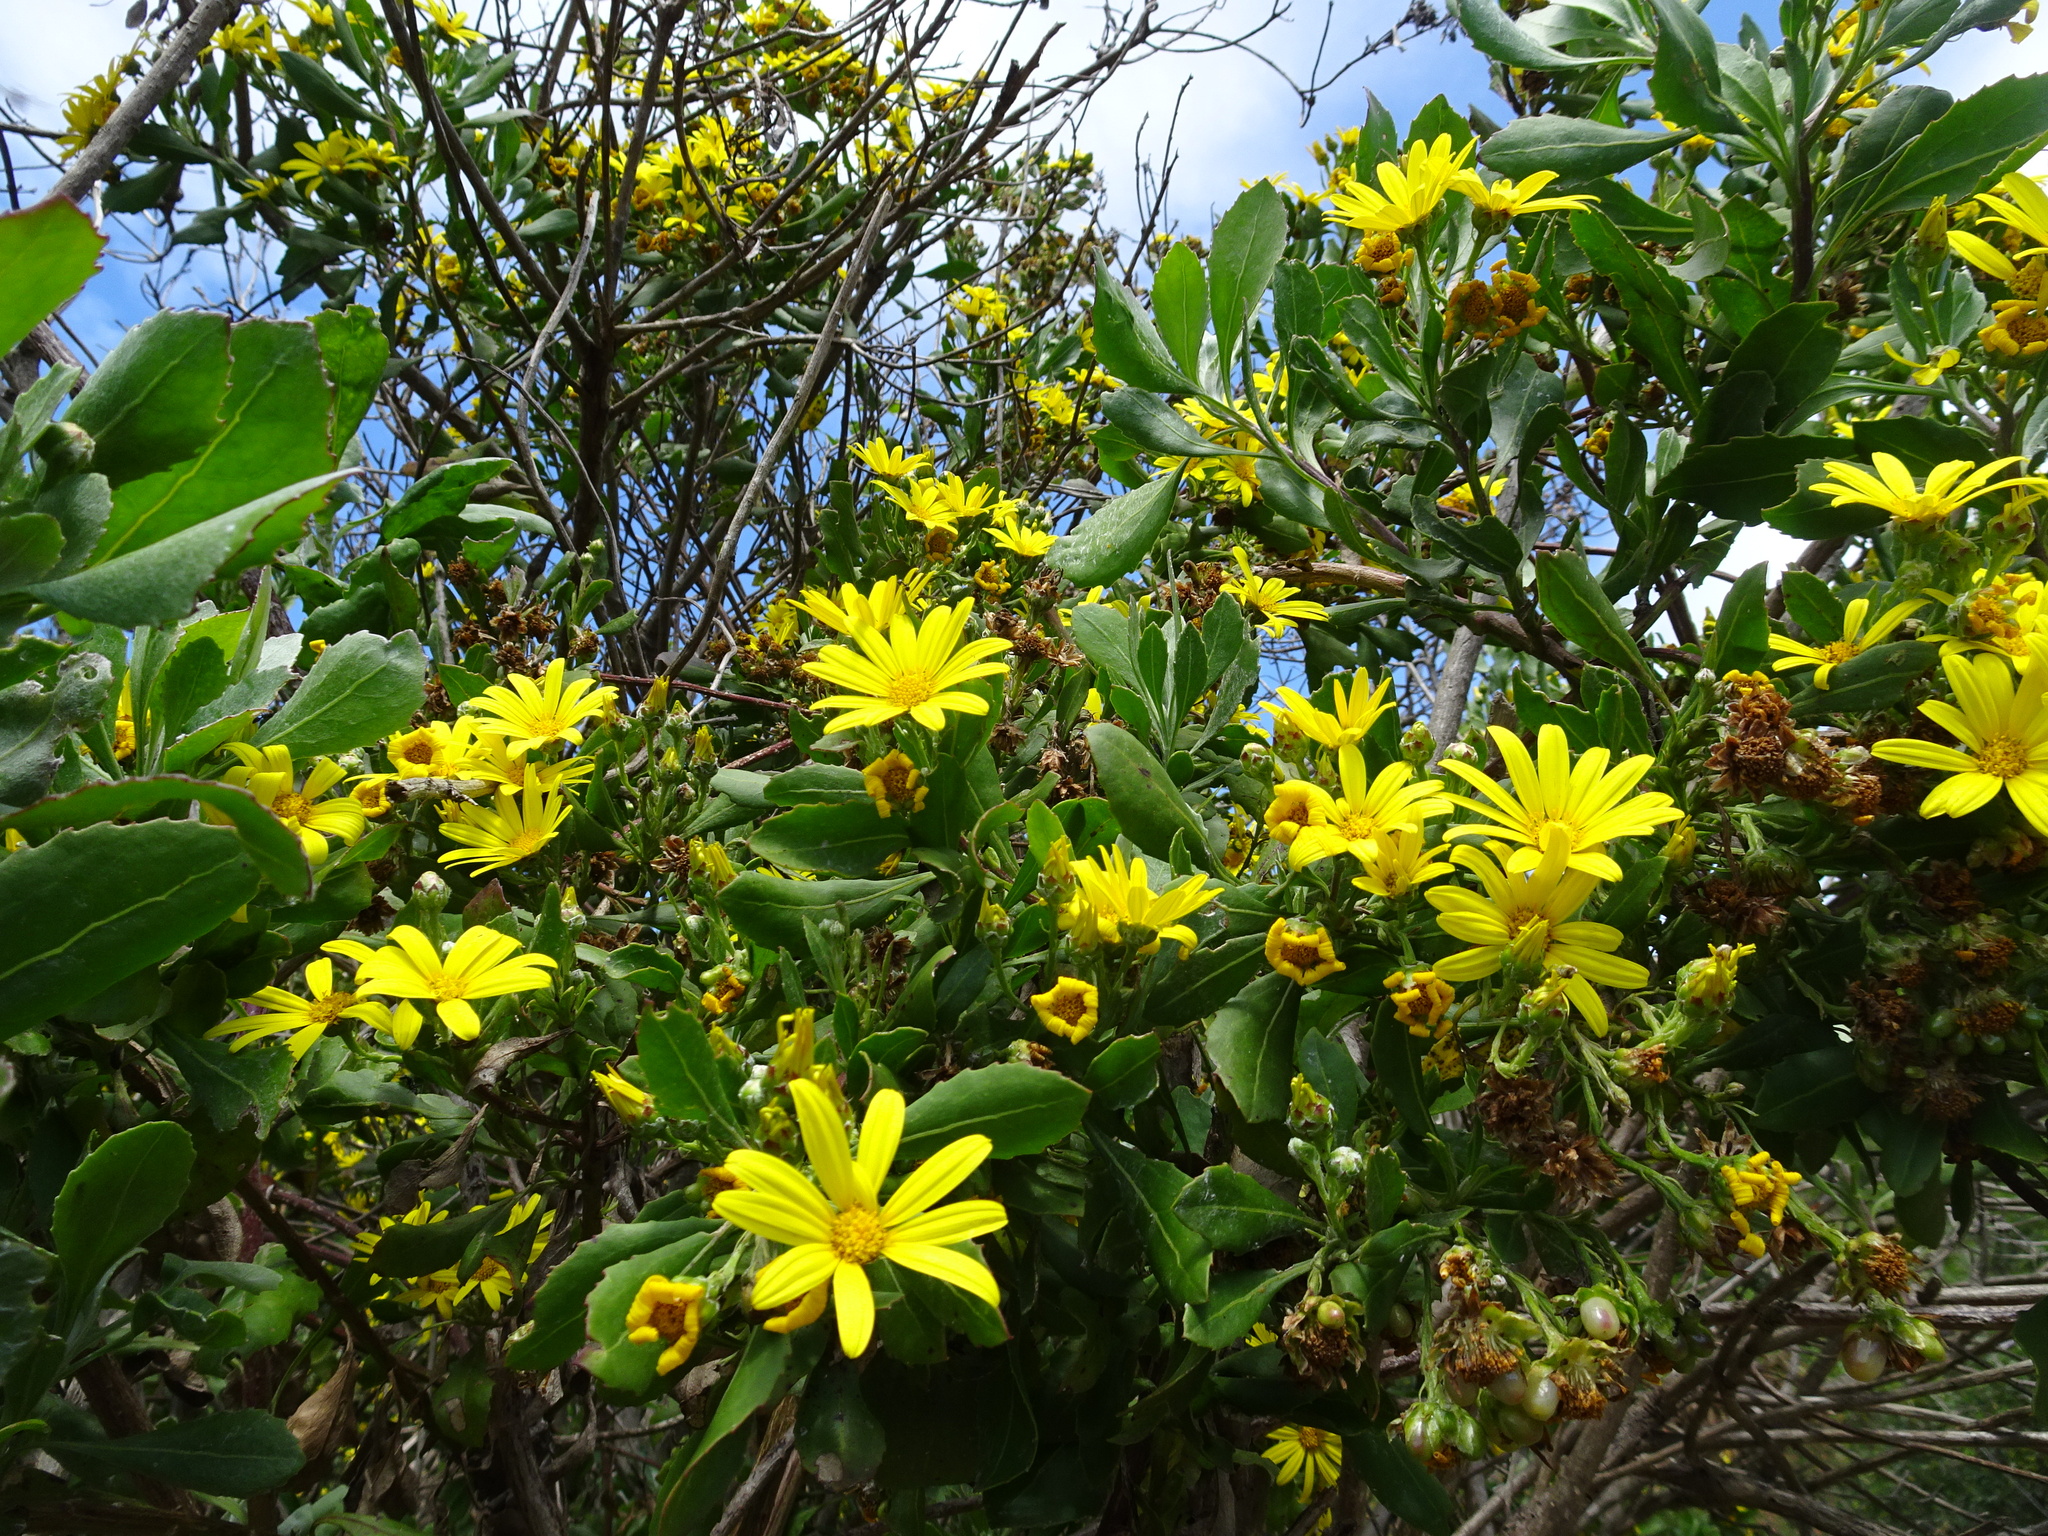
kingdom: Plantae
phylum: Tracheophyta
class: Magnoliopsida
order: Asterales
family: Asteraceae
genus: Osteospermum
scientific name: Osteospermum moniliferum
